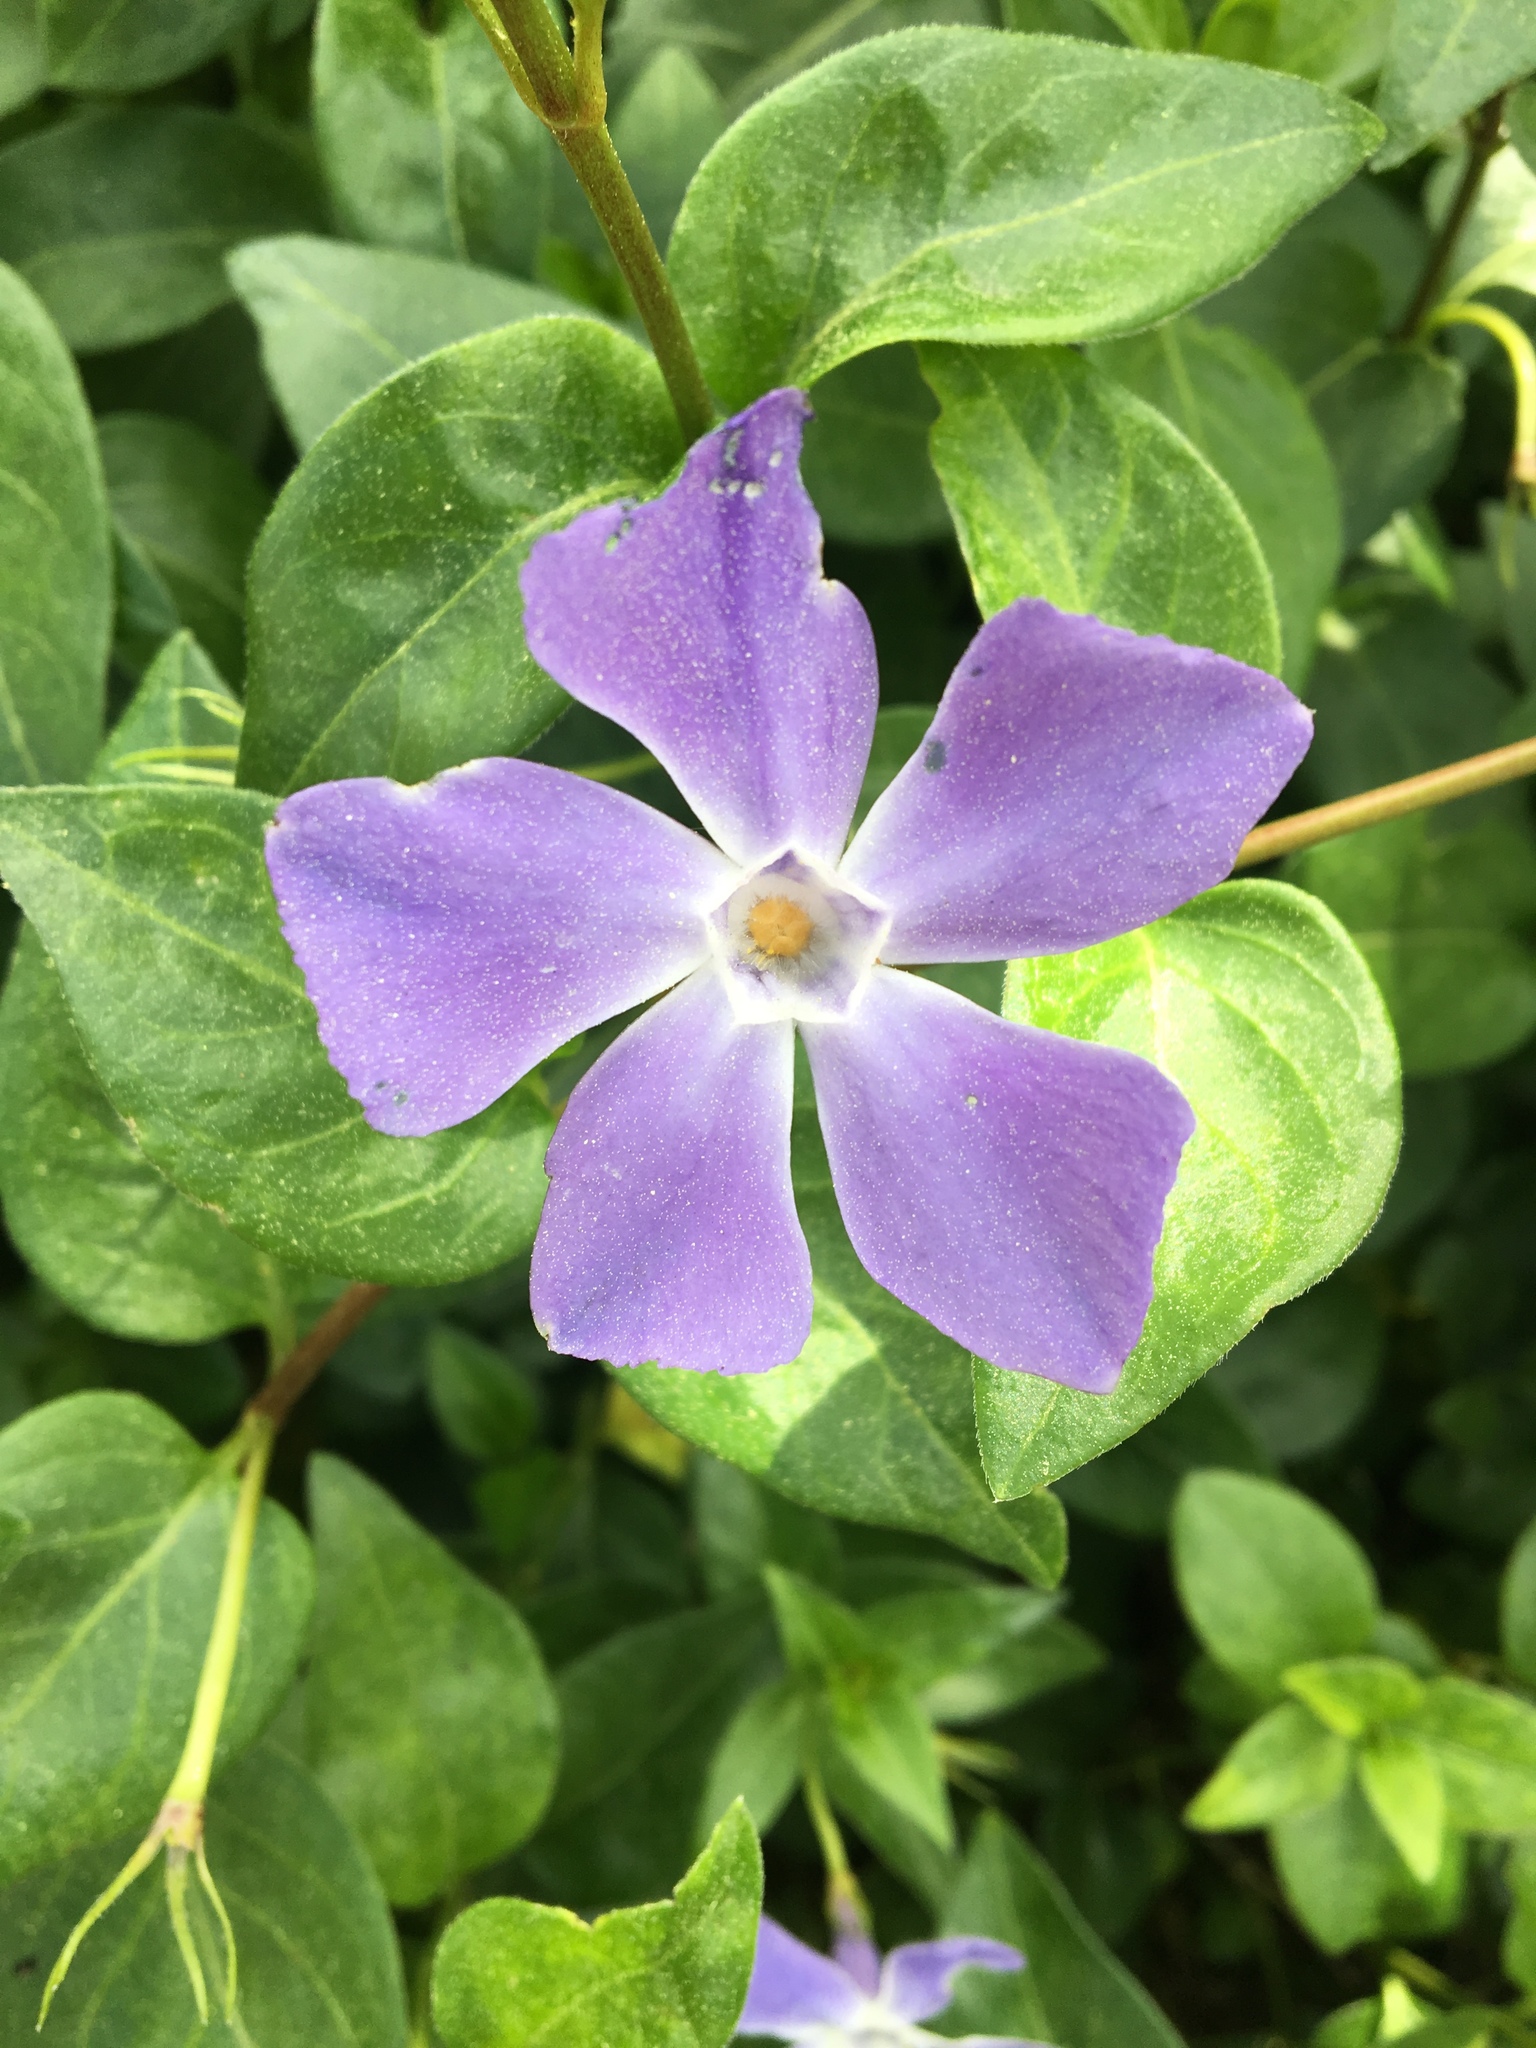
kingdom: Plantae
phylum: Tracheophyta
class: Magnoliopsida
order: Gentianales
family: Apocynaceae
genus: Vinca
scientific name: Vinca major
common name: Greater periwinkle
